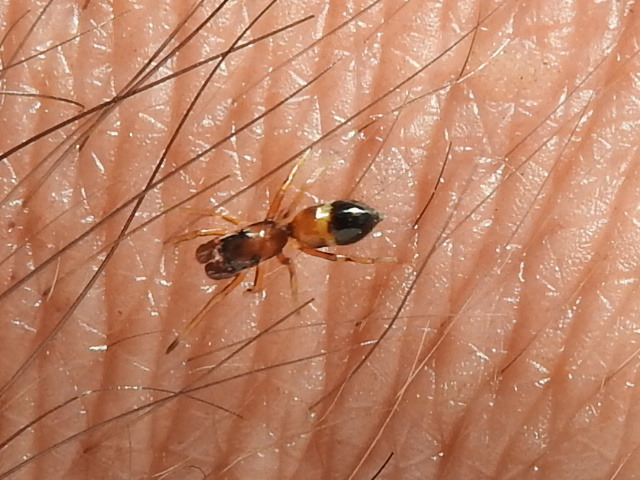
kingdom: Animalia
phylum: Arthropoda
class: Arachnida
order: Araneae
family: Salticidae
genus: Sarinda
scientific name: Sarinda hentzi
